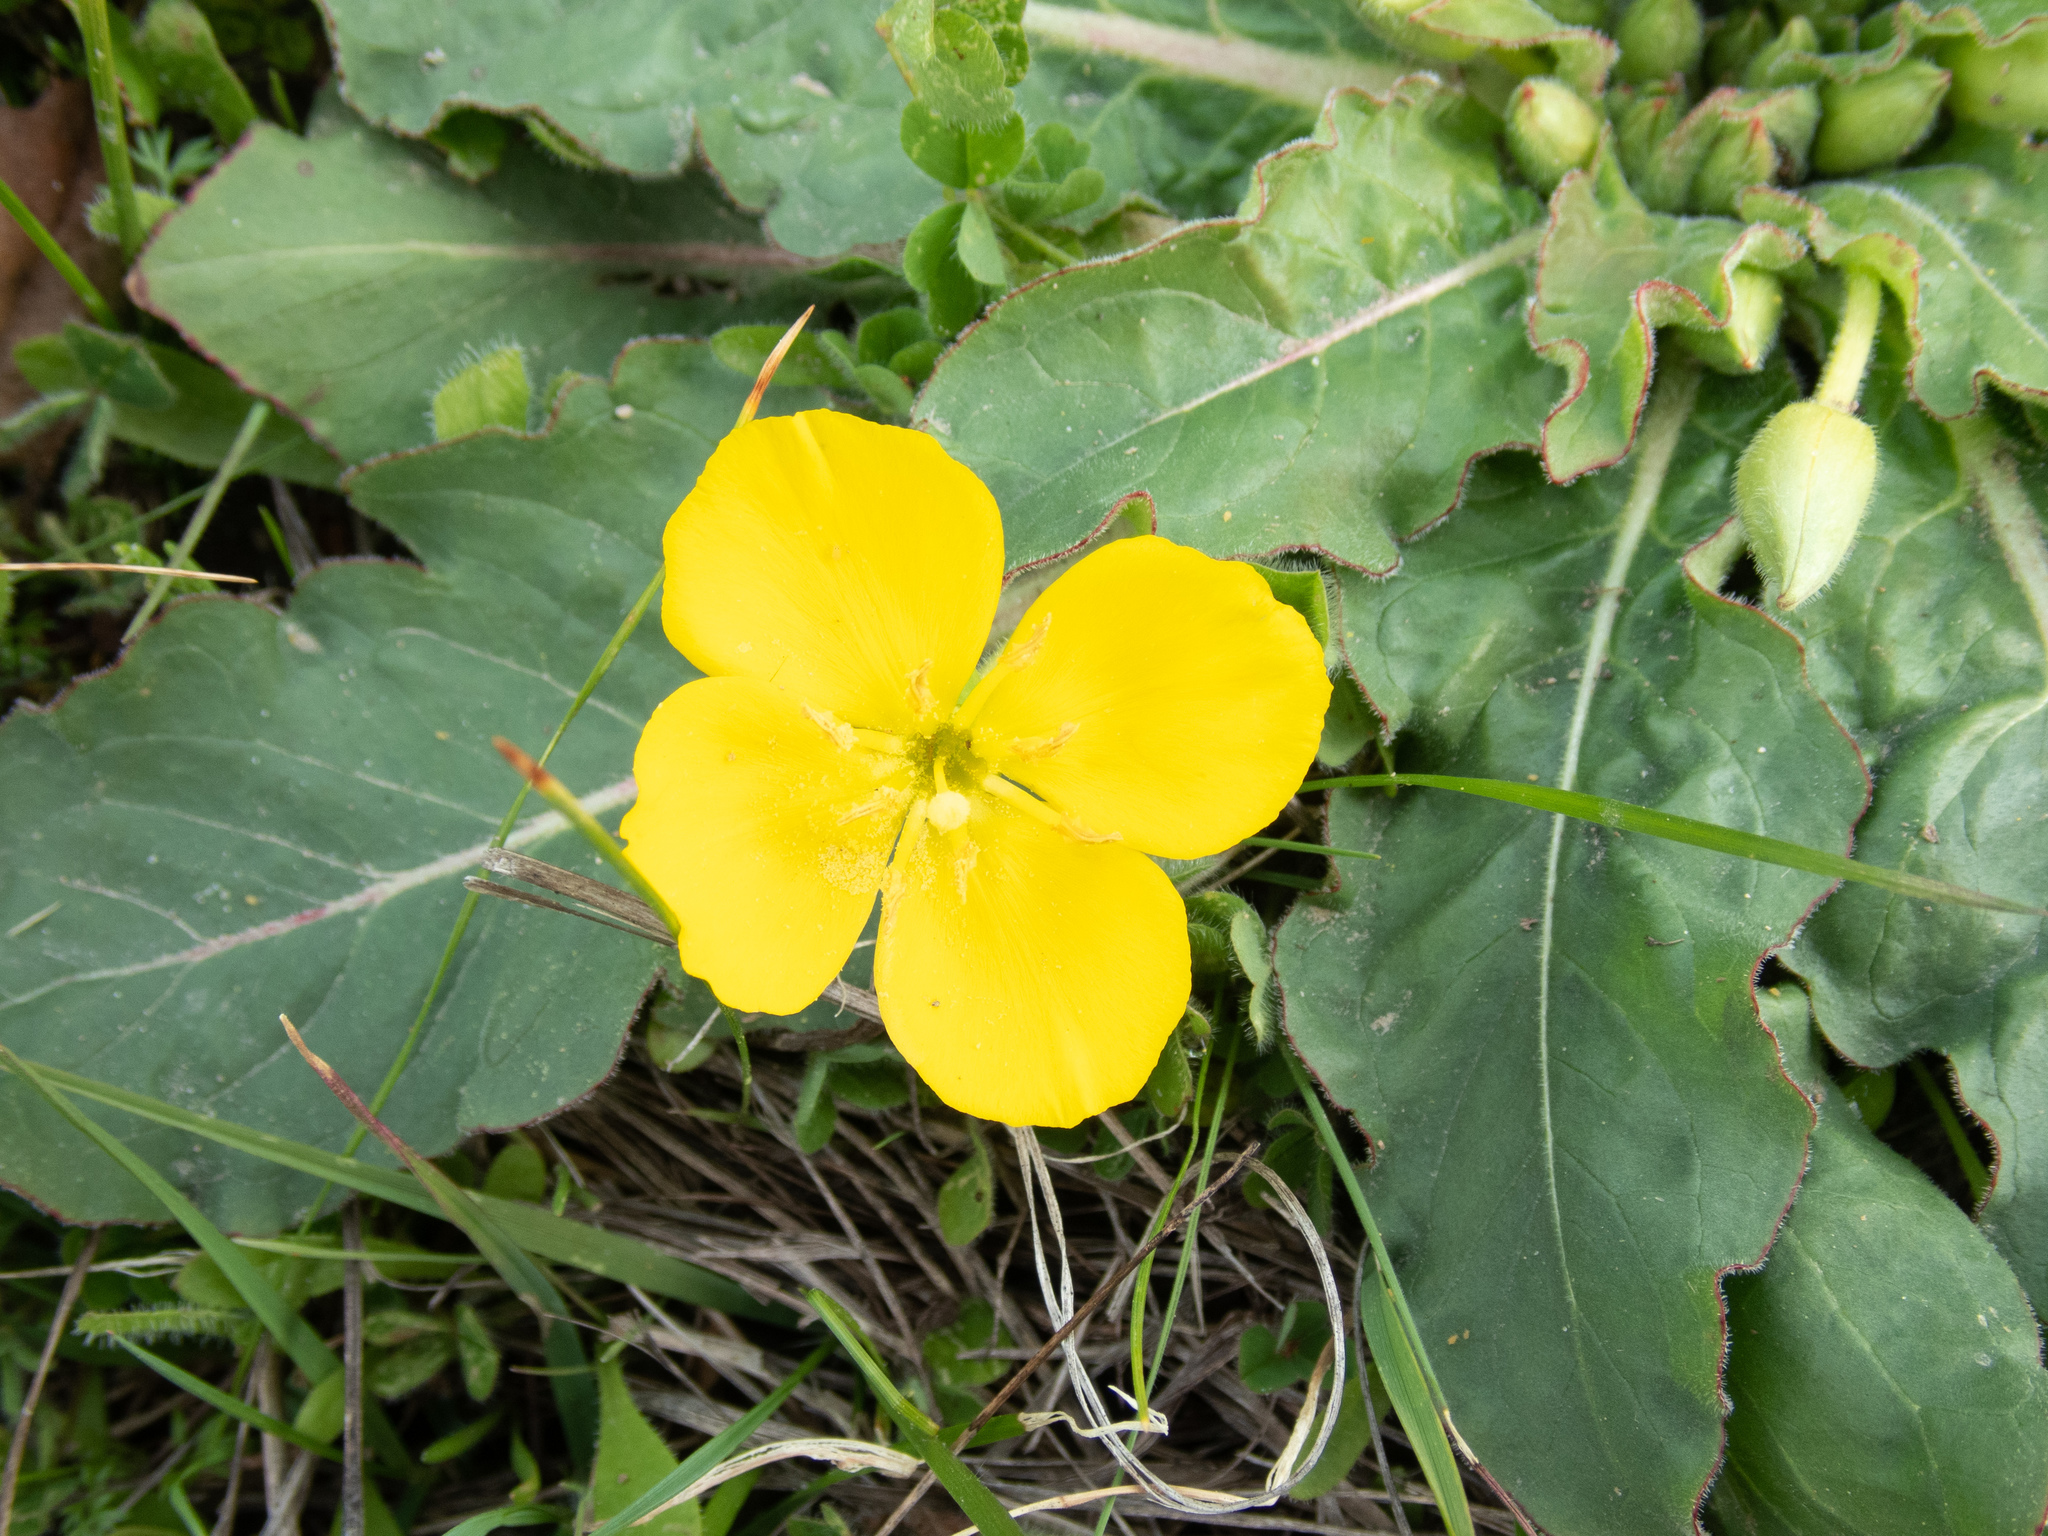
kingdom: Plantae
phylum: Tracheophyta
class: Magnoliopsida
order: Myrtales
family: Onagraceae
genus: Taraxia
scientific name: Taraxia ovata
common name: Goldeneggs
